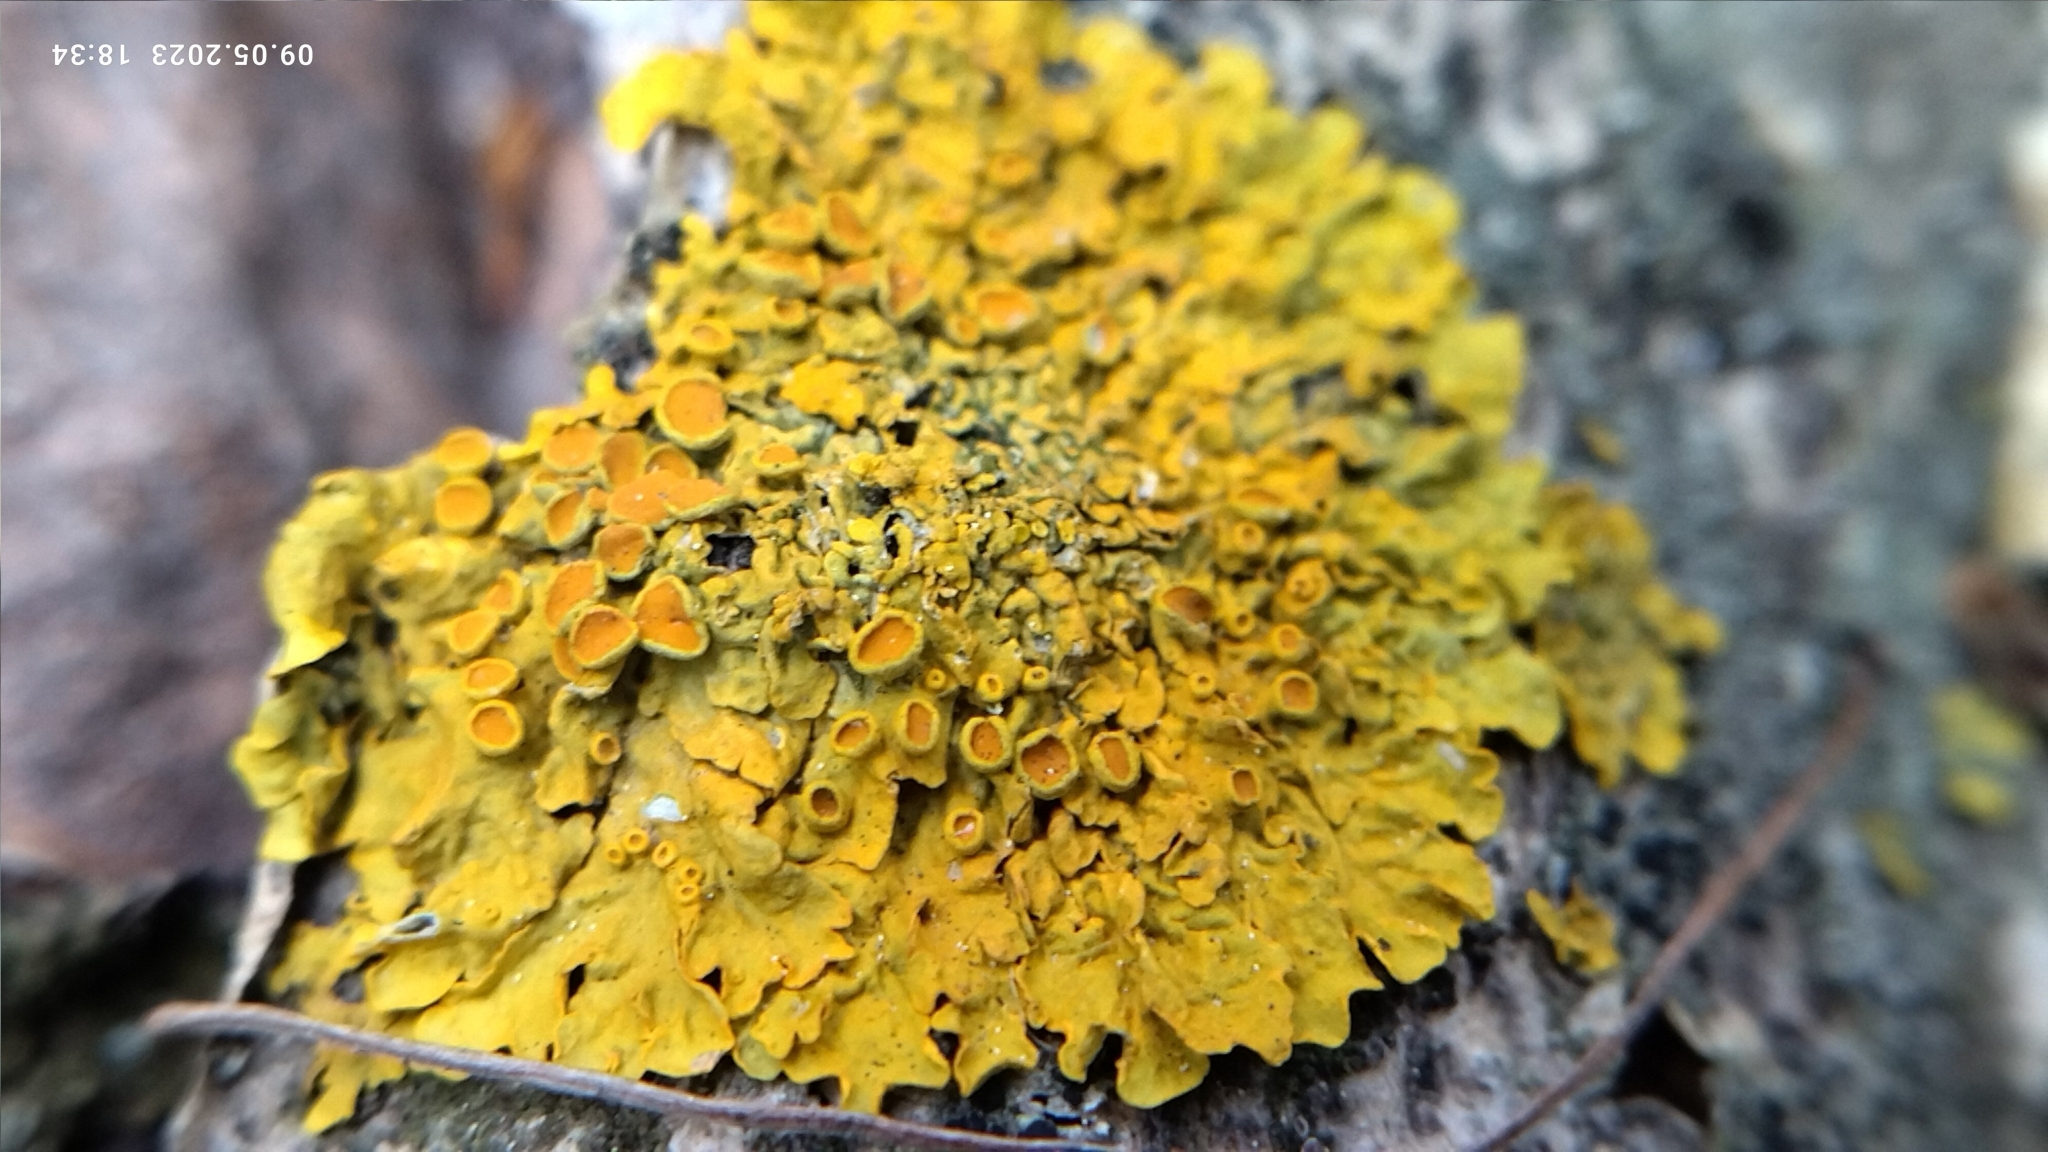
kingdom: Fungi
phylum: Ascomycota
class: Lecanoromycetes
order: Teloschistales
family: Teloschistaceae
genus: Xanthoria
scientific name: Xanthoria parietina
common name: Common orange lichen
